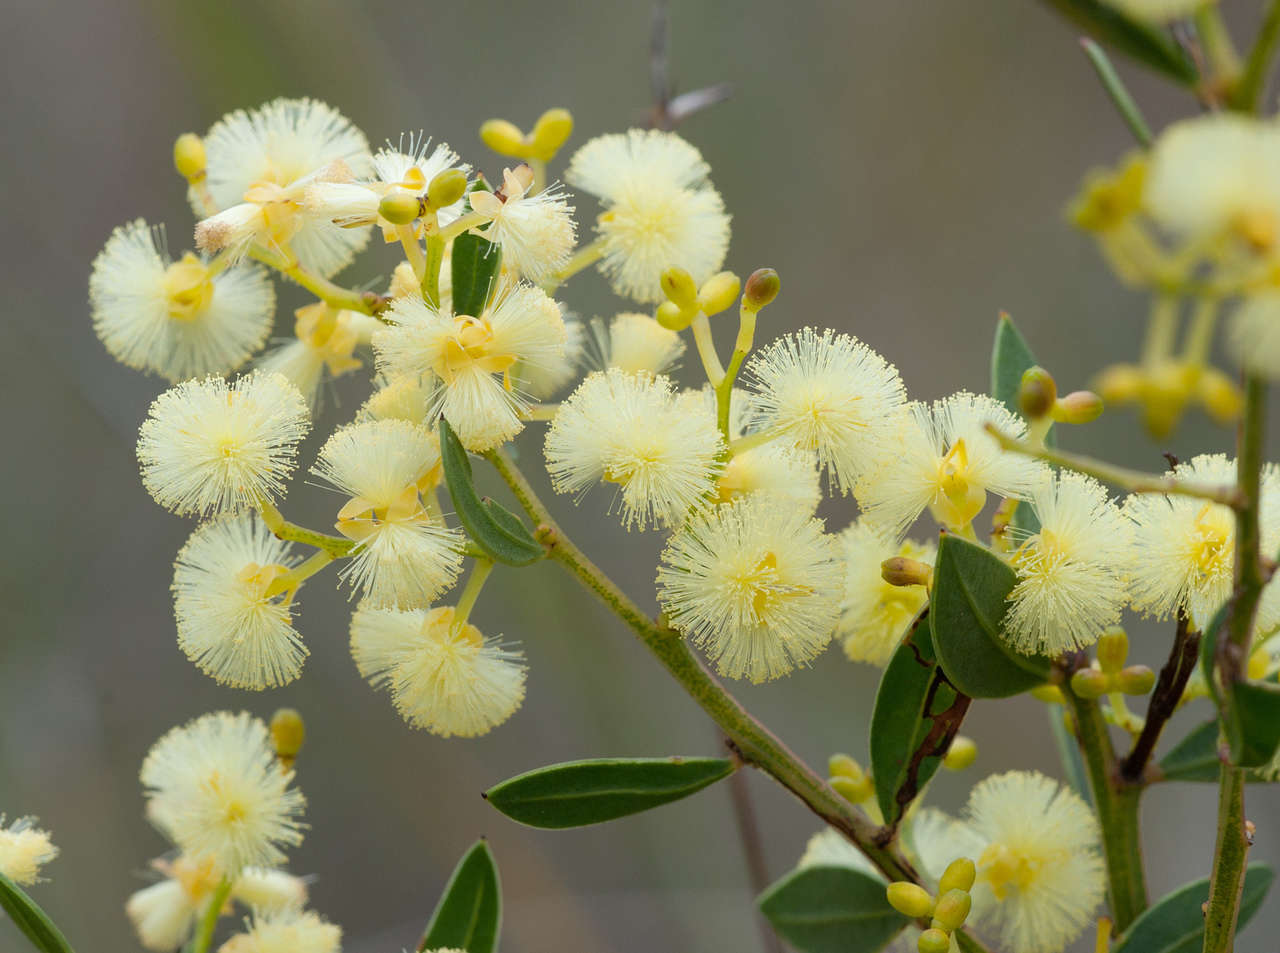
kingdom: Plantae
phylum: Tracheophyta
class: Magnoliopsida
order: Fabales
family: Fabaceae
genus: Acacia
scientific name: Acacia myrtifolia
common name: Myrtle wattle
